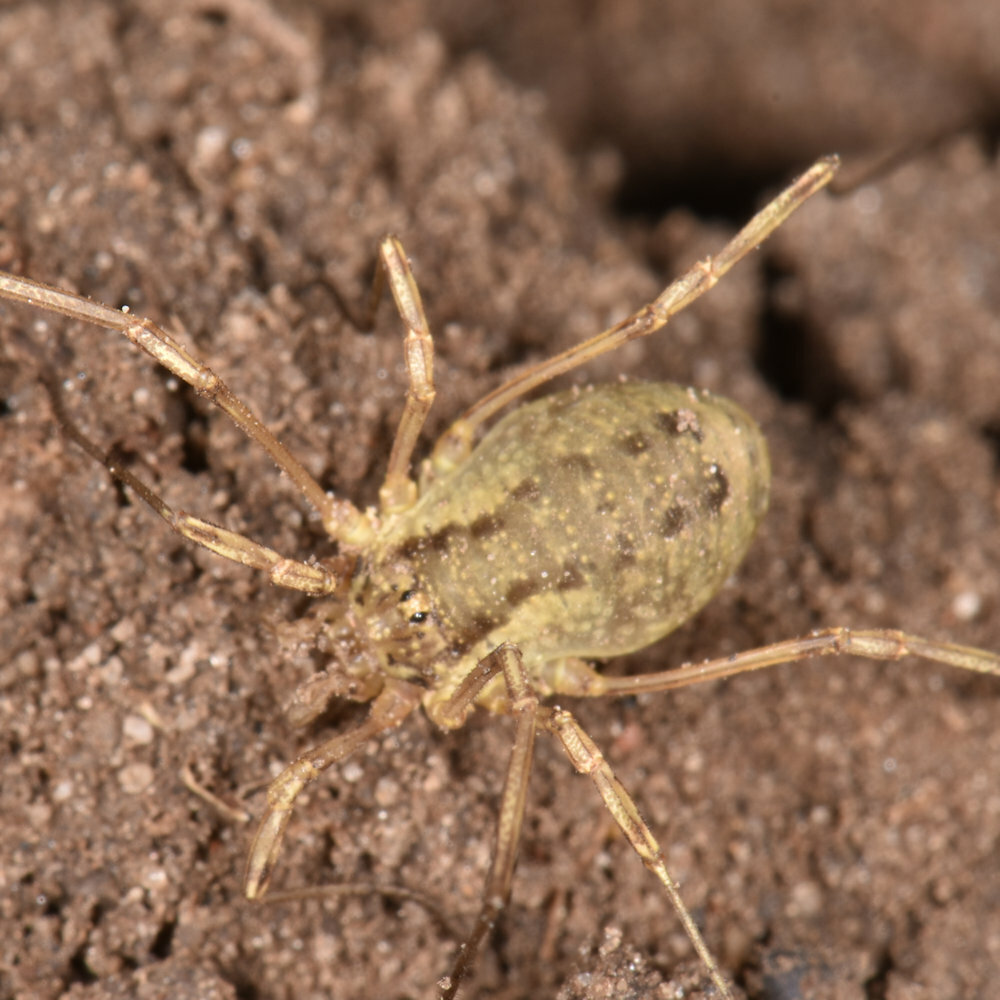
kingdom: Animalia
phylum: Arthropoda
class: Arachnida
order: Opiliones
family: Phalangiidae
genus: Oligolophus
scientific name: Oligolophus tridens
